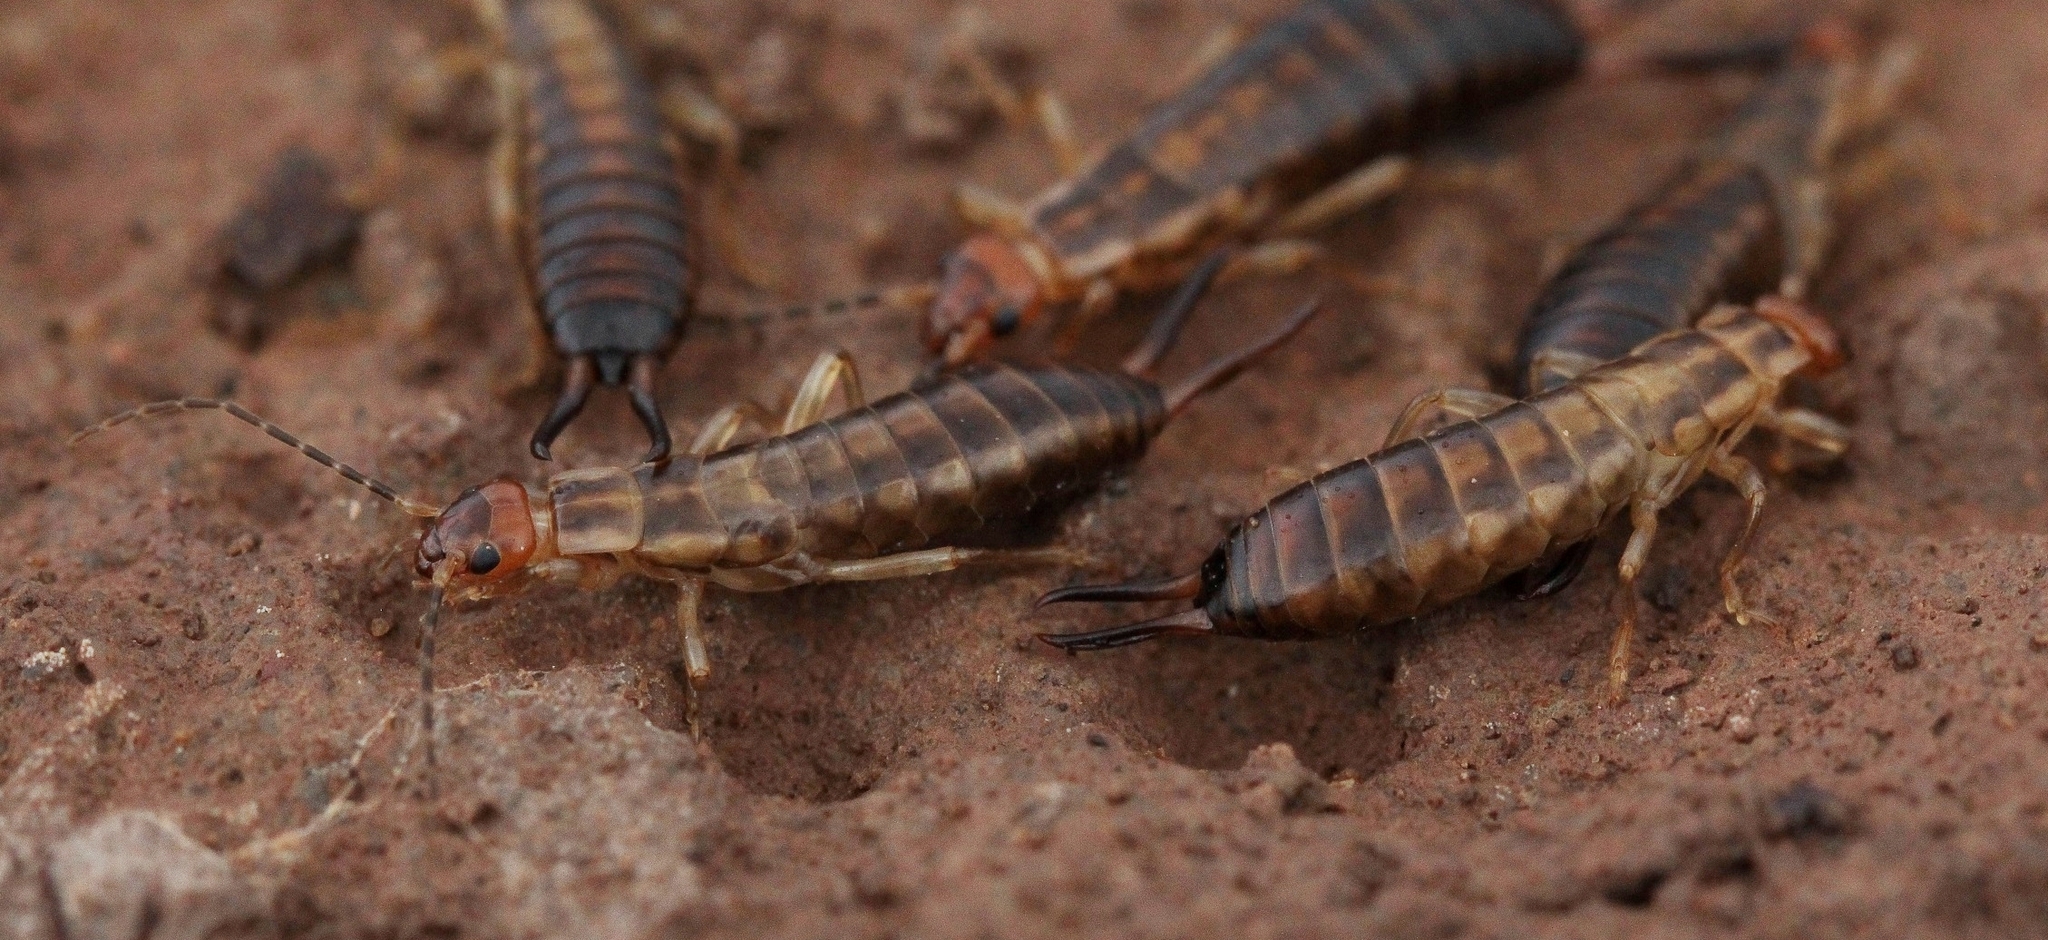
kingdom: Animalia
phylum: Arthropoda
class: Insecta
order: Dermaptera
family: Forficulidae
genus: Forficula
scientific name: Forficula tomis
